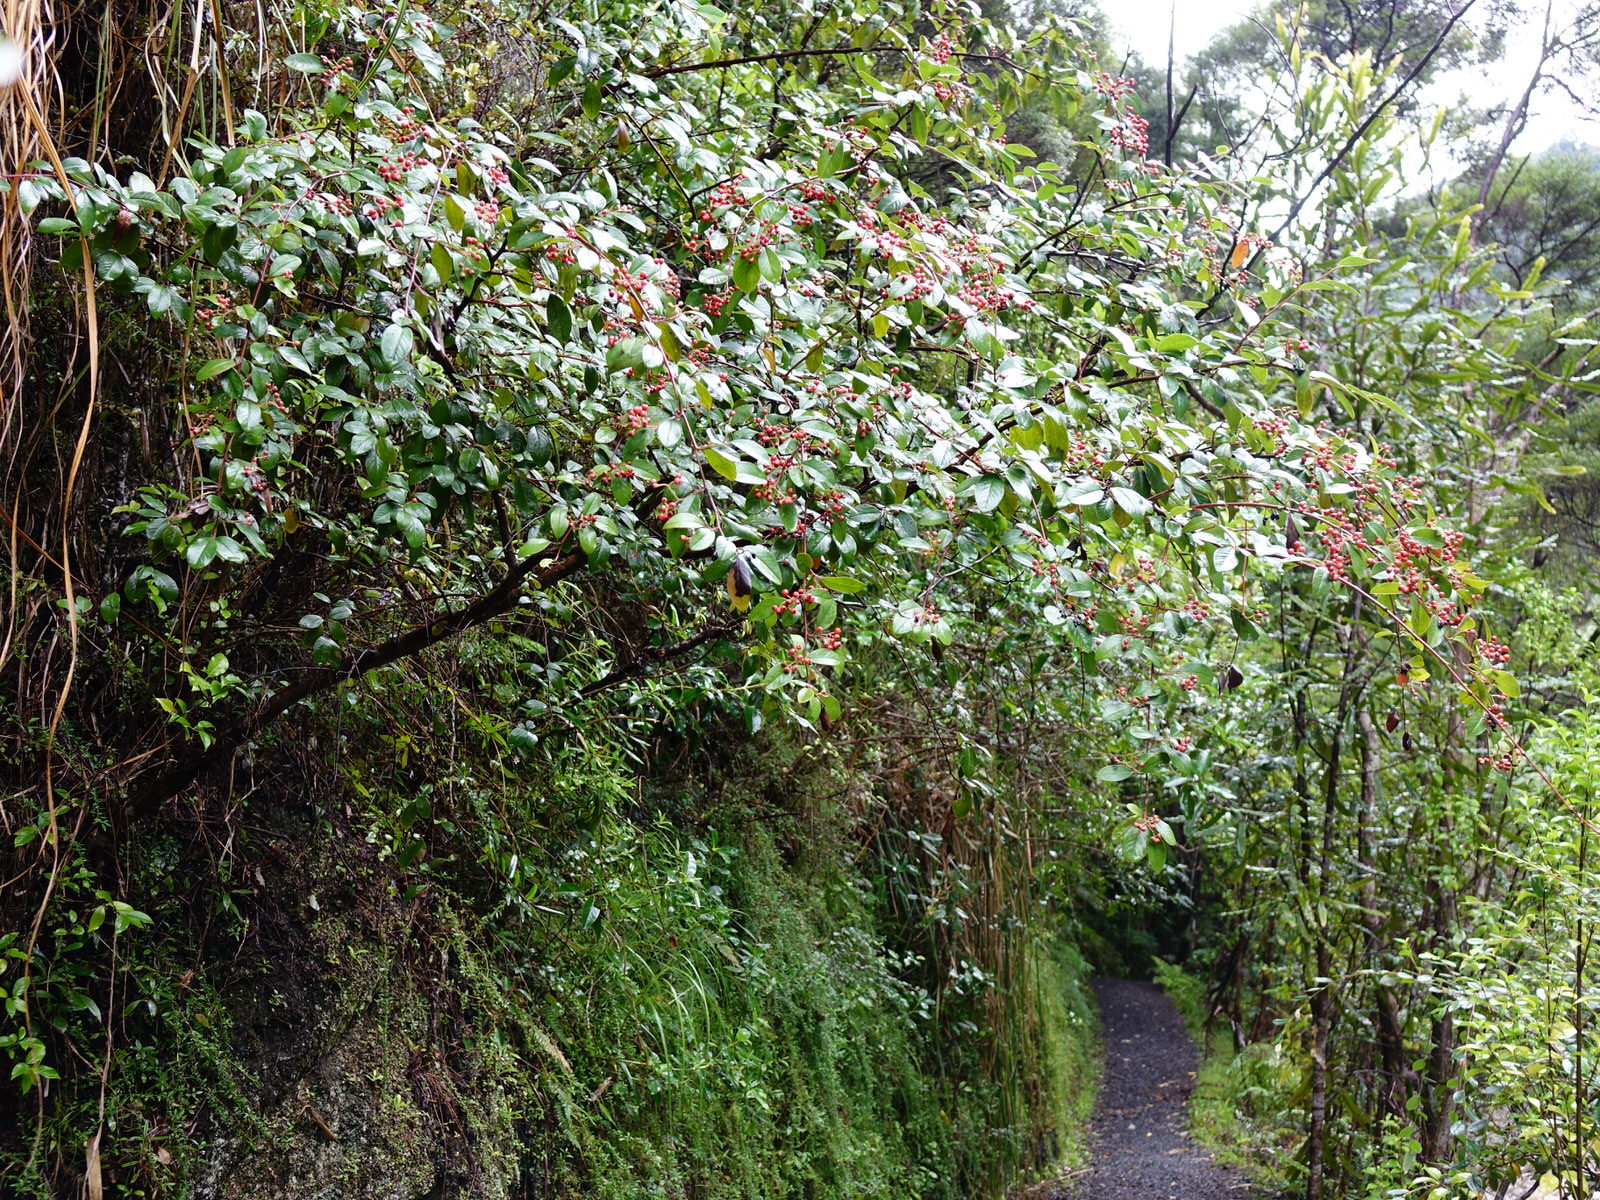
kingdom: Plantae
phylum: Tracheophyta
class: Magnoliopsida
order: Rosales
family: Rosaceae
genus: Cotoneaster
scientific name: Cotoneaster glaucophyllus
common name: Glaucous cotoneaster
